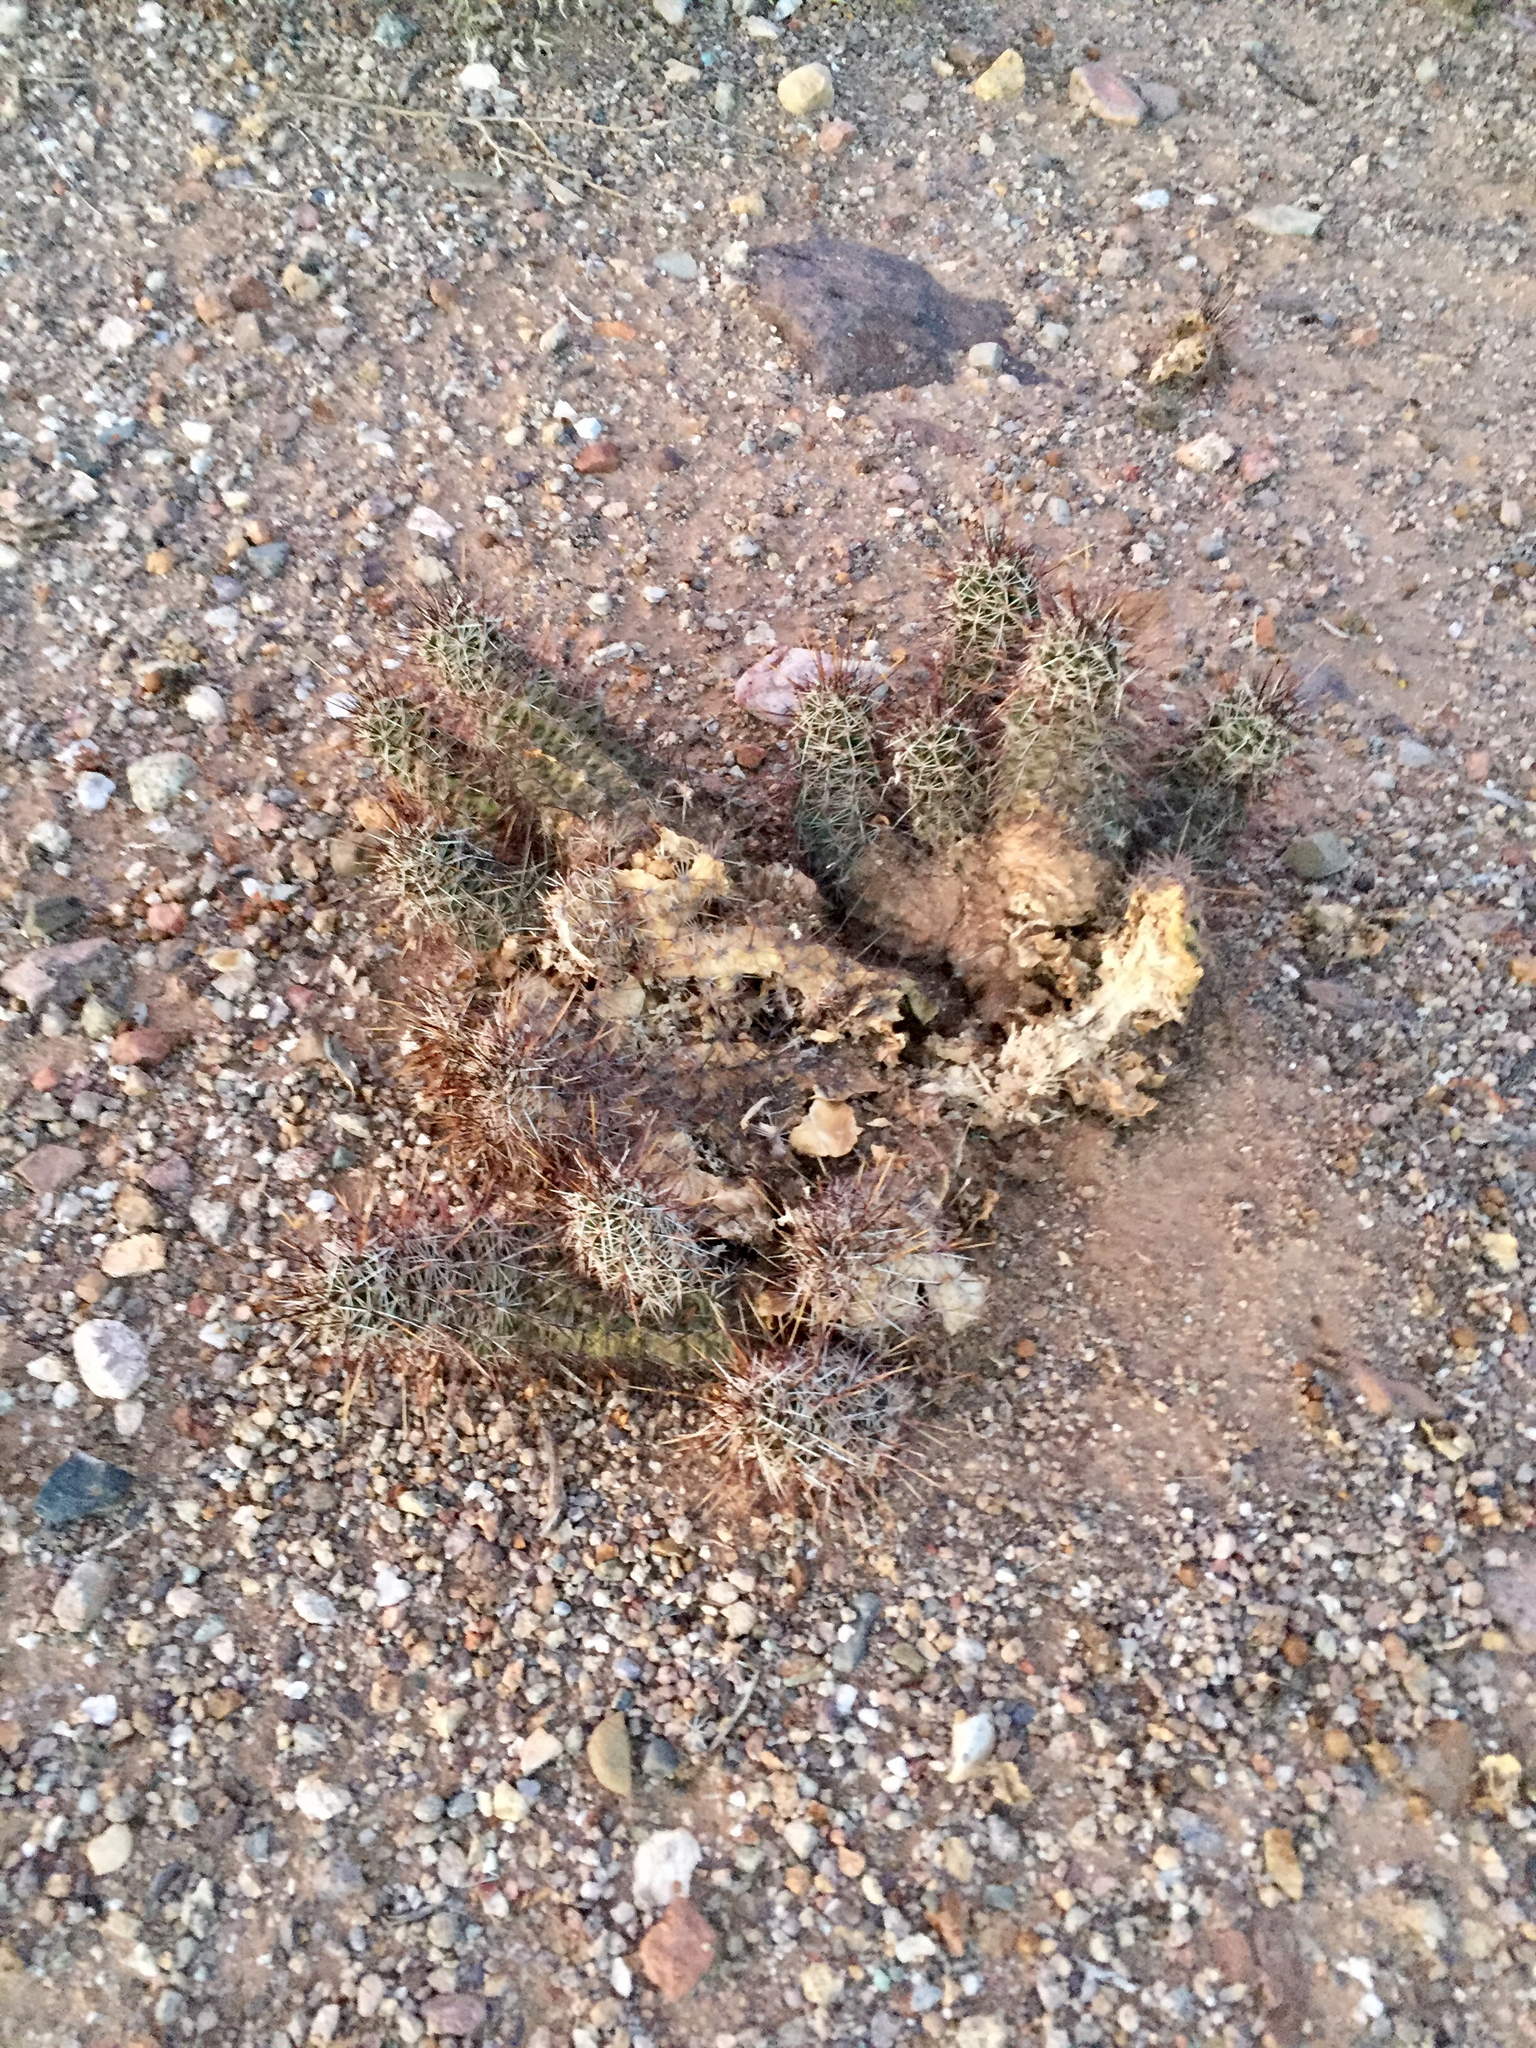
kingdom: Plantae
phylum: Tracheophyta
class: Magnoliopsida
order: Caryophyllales
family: Cactaceae
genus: Echinocereus
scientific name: Echinocereus fasciculatus
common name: Bundle hedgehog
